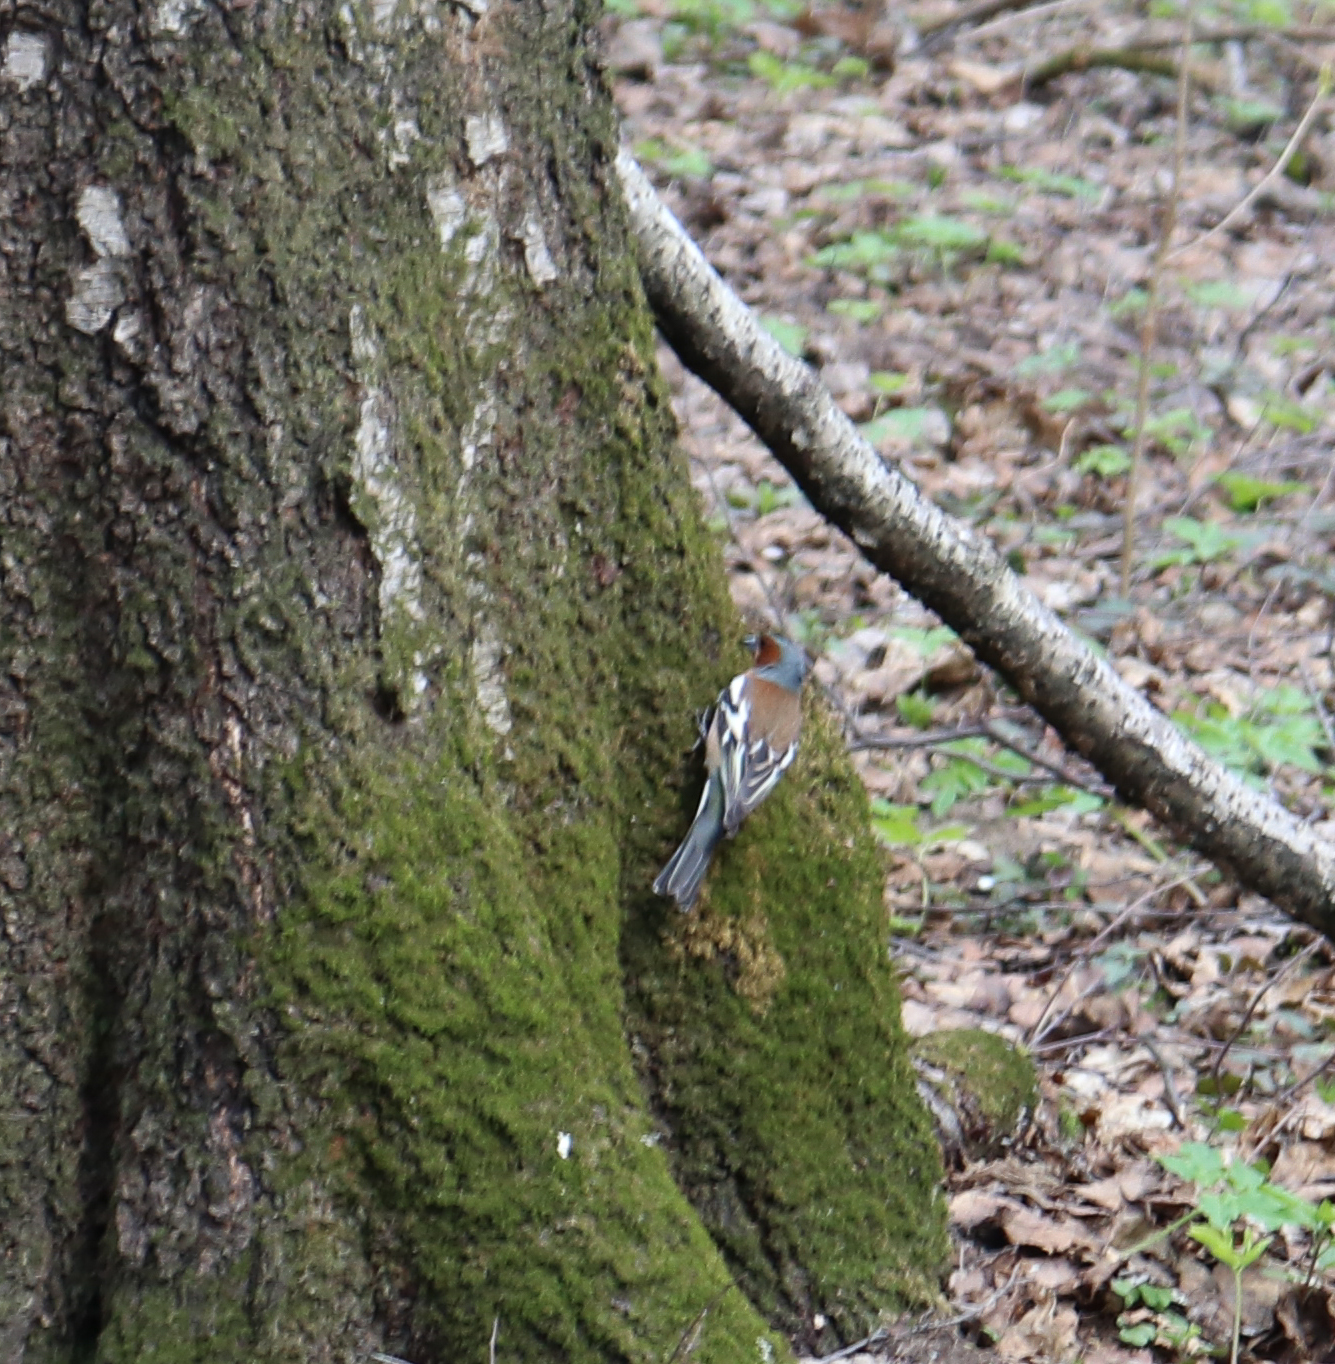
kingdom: Animalia
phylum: Chordata
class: Aves
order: Passeriformes
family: Fringillidae
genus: Fringilla
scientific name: Fringilla coelebs
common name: Common chaffinch
